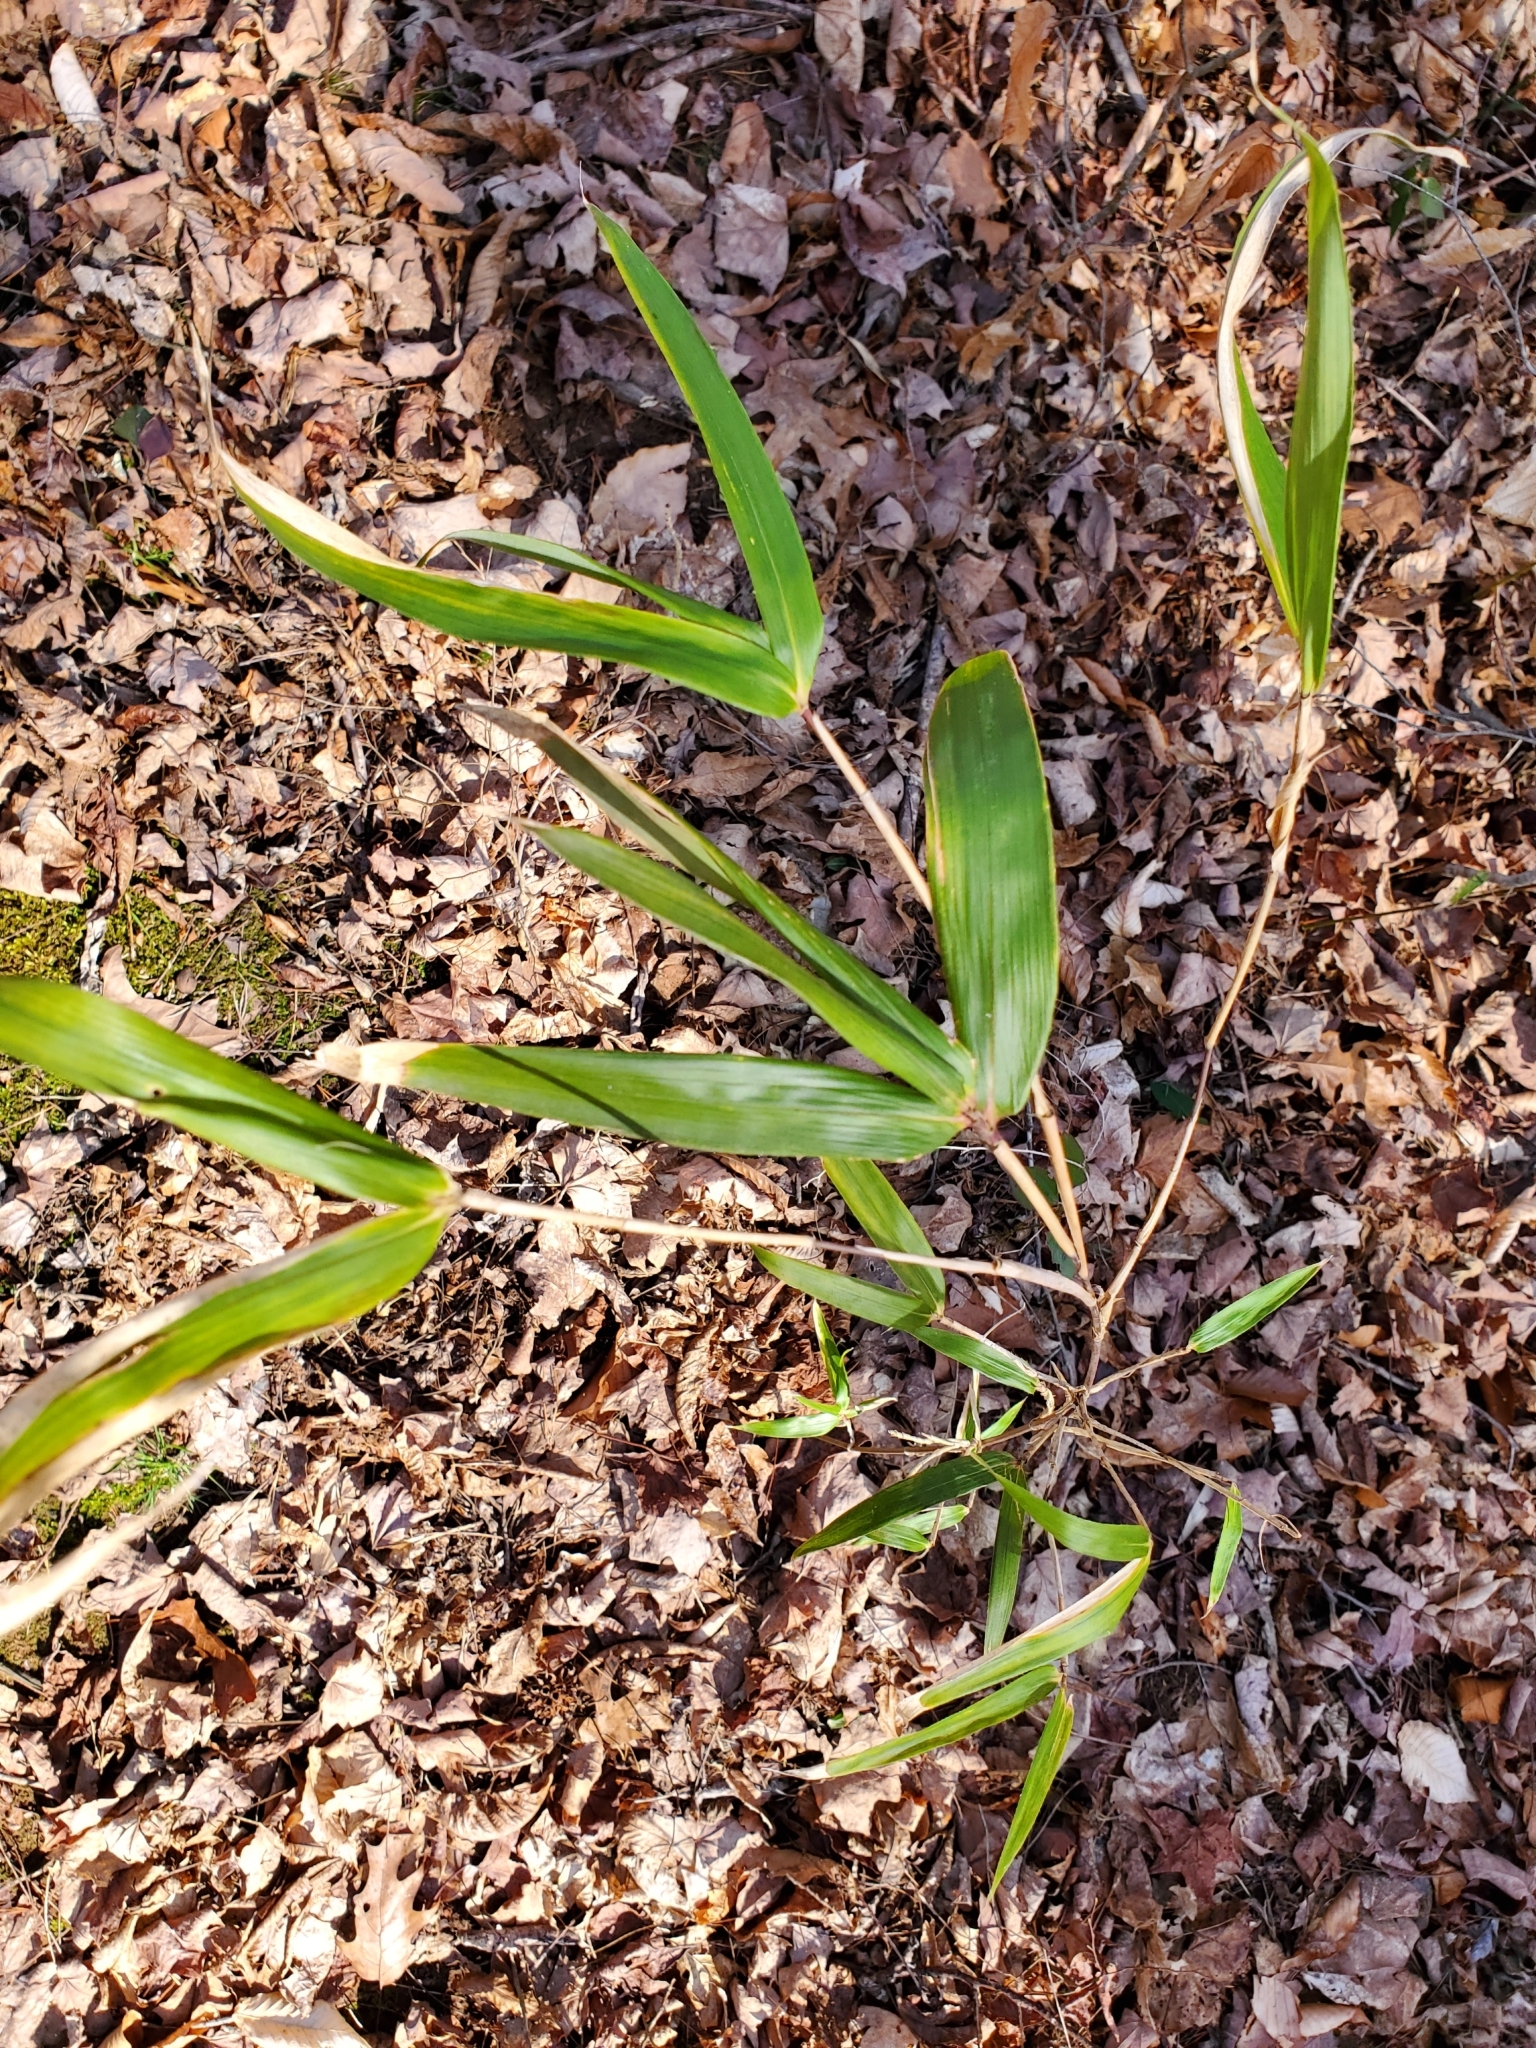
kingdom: Plantae
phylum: Tracheophyta
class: Liliopsida
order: Poales
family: Poaceae
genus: Arundinaria
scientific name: Arundinaria gigantea
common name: Giant cane
